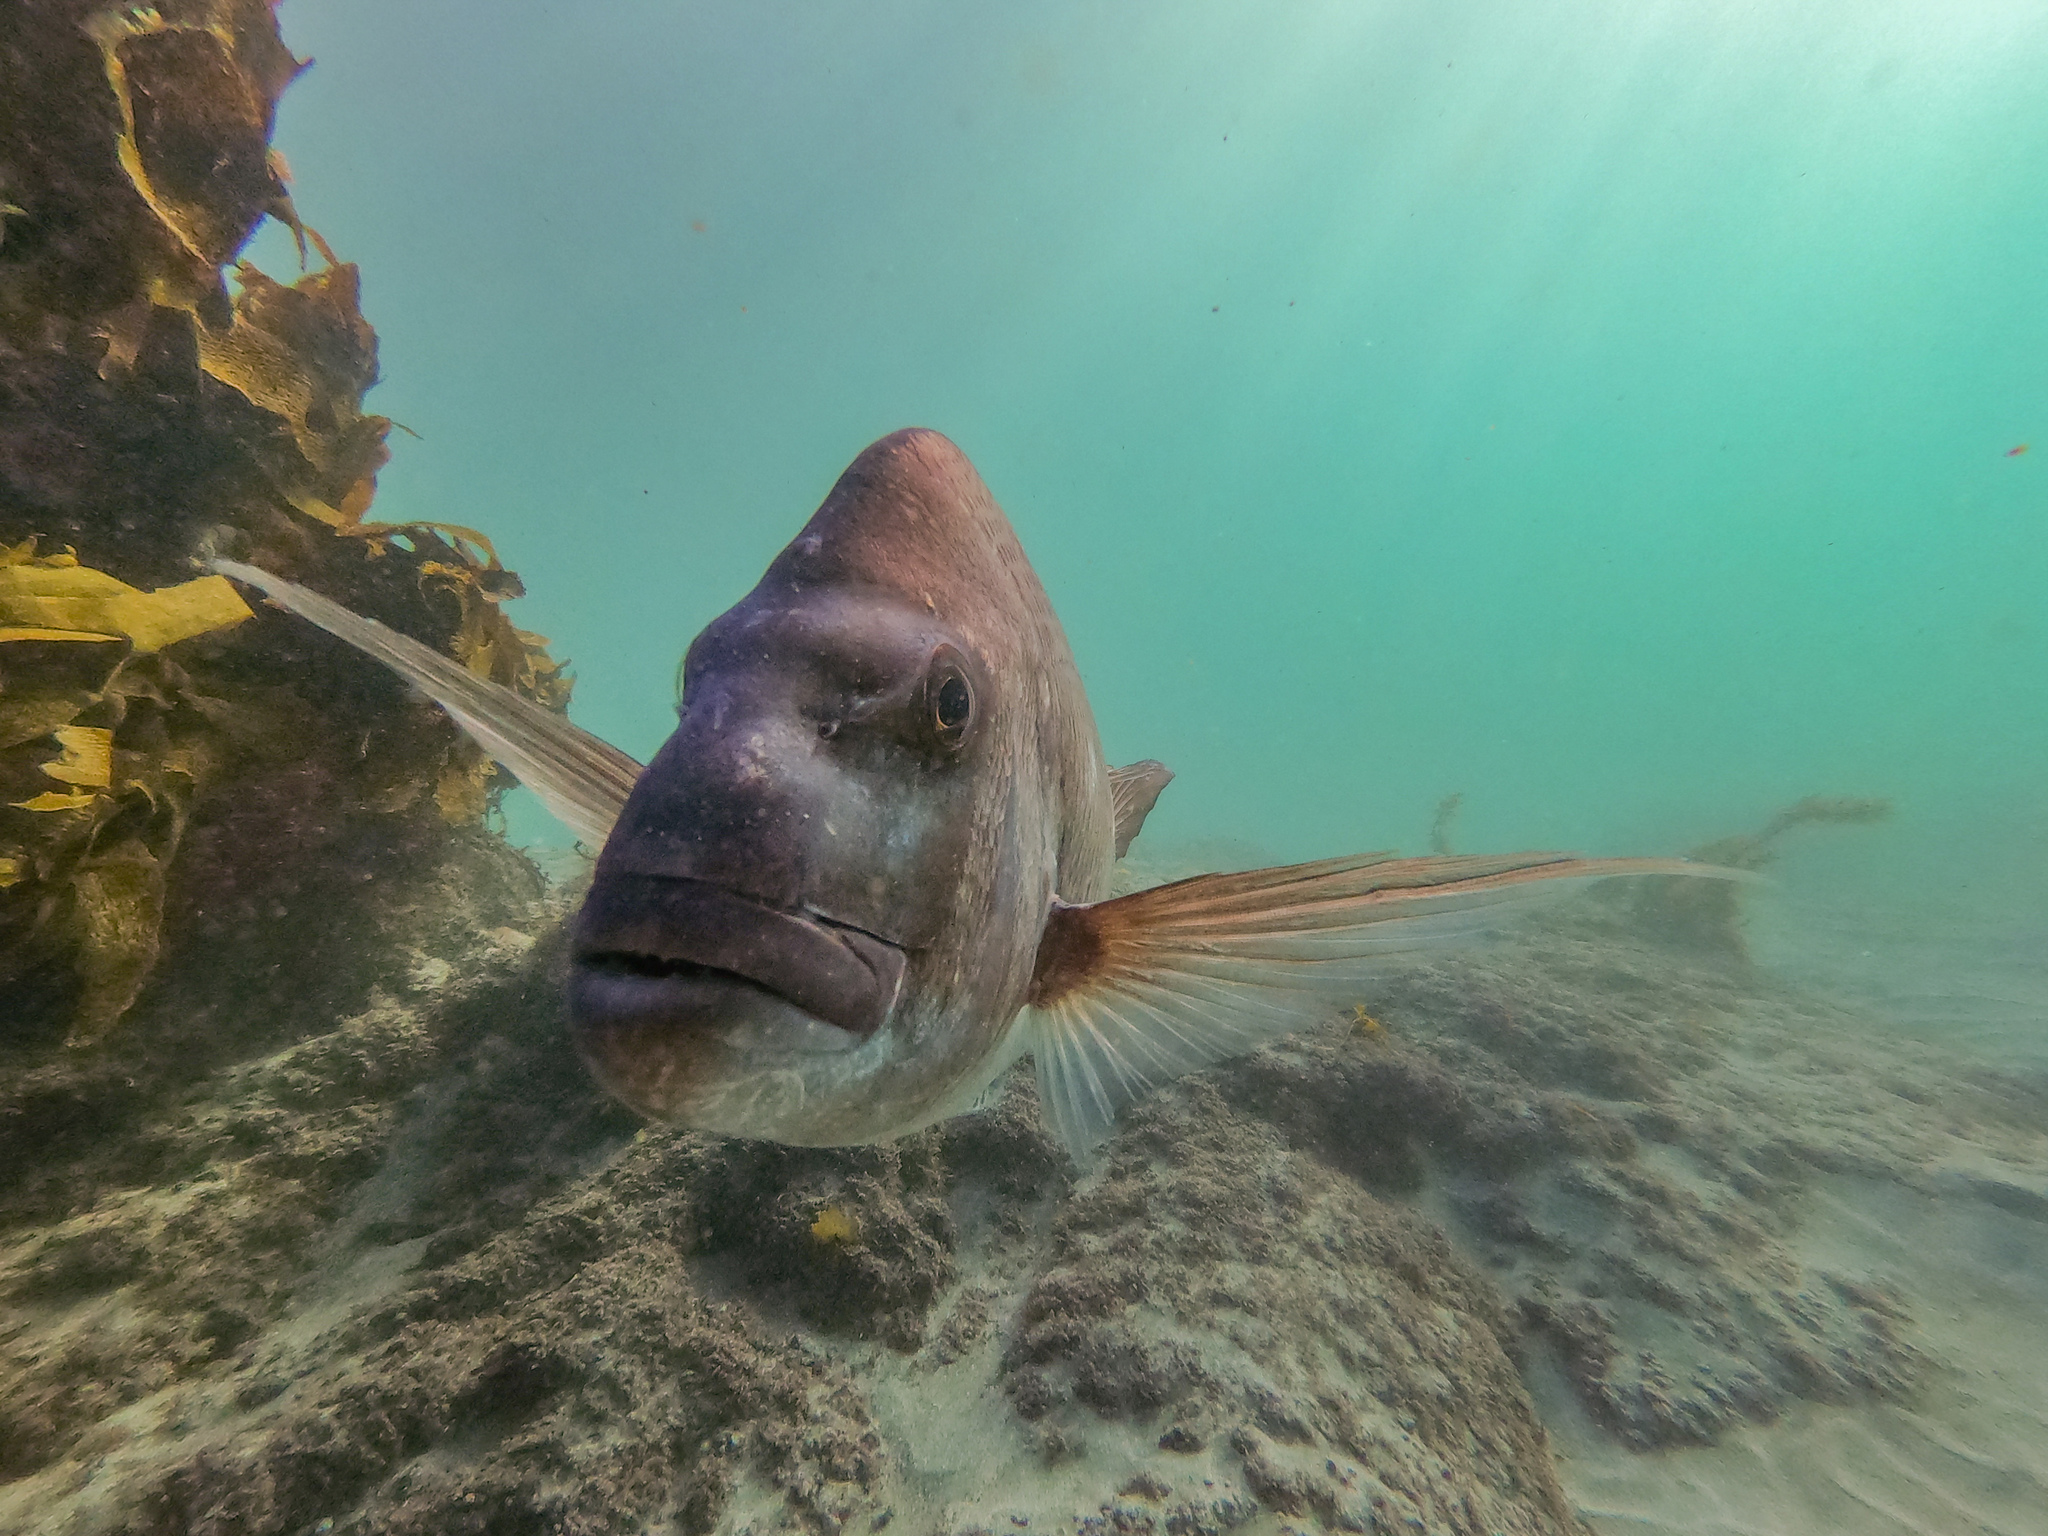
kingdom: Animalia
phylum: Chordata
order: Perciformes
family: Sparidae
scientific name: Sparidae
